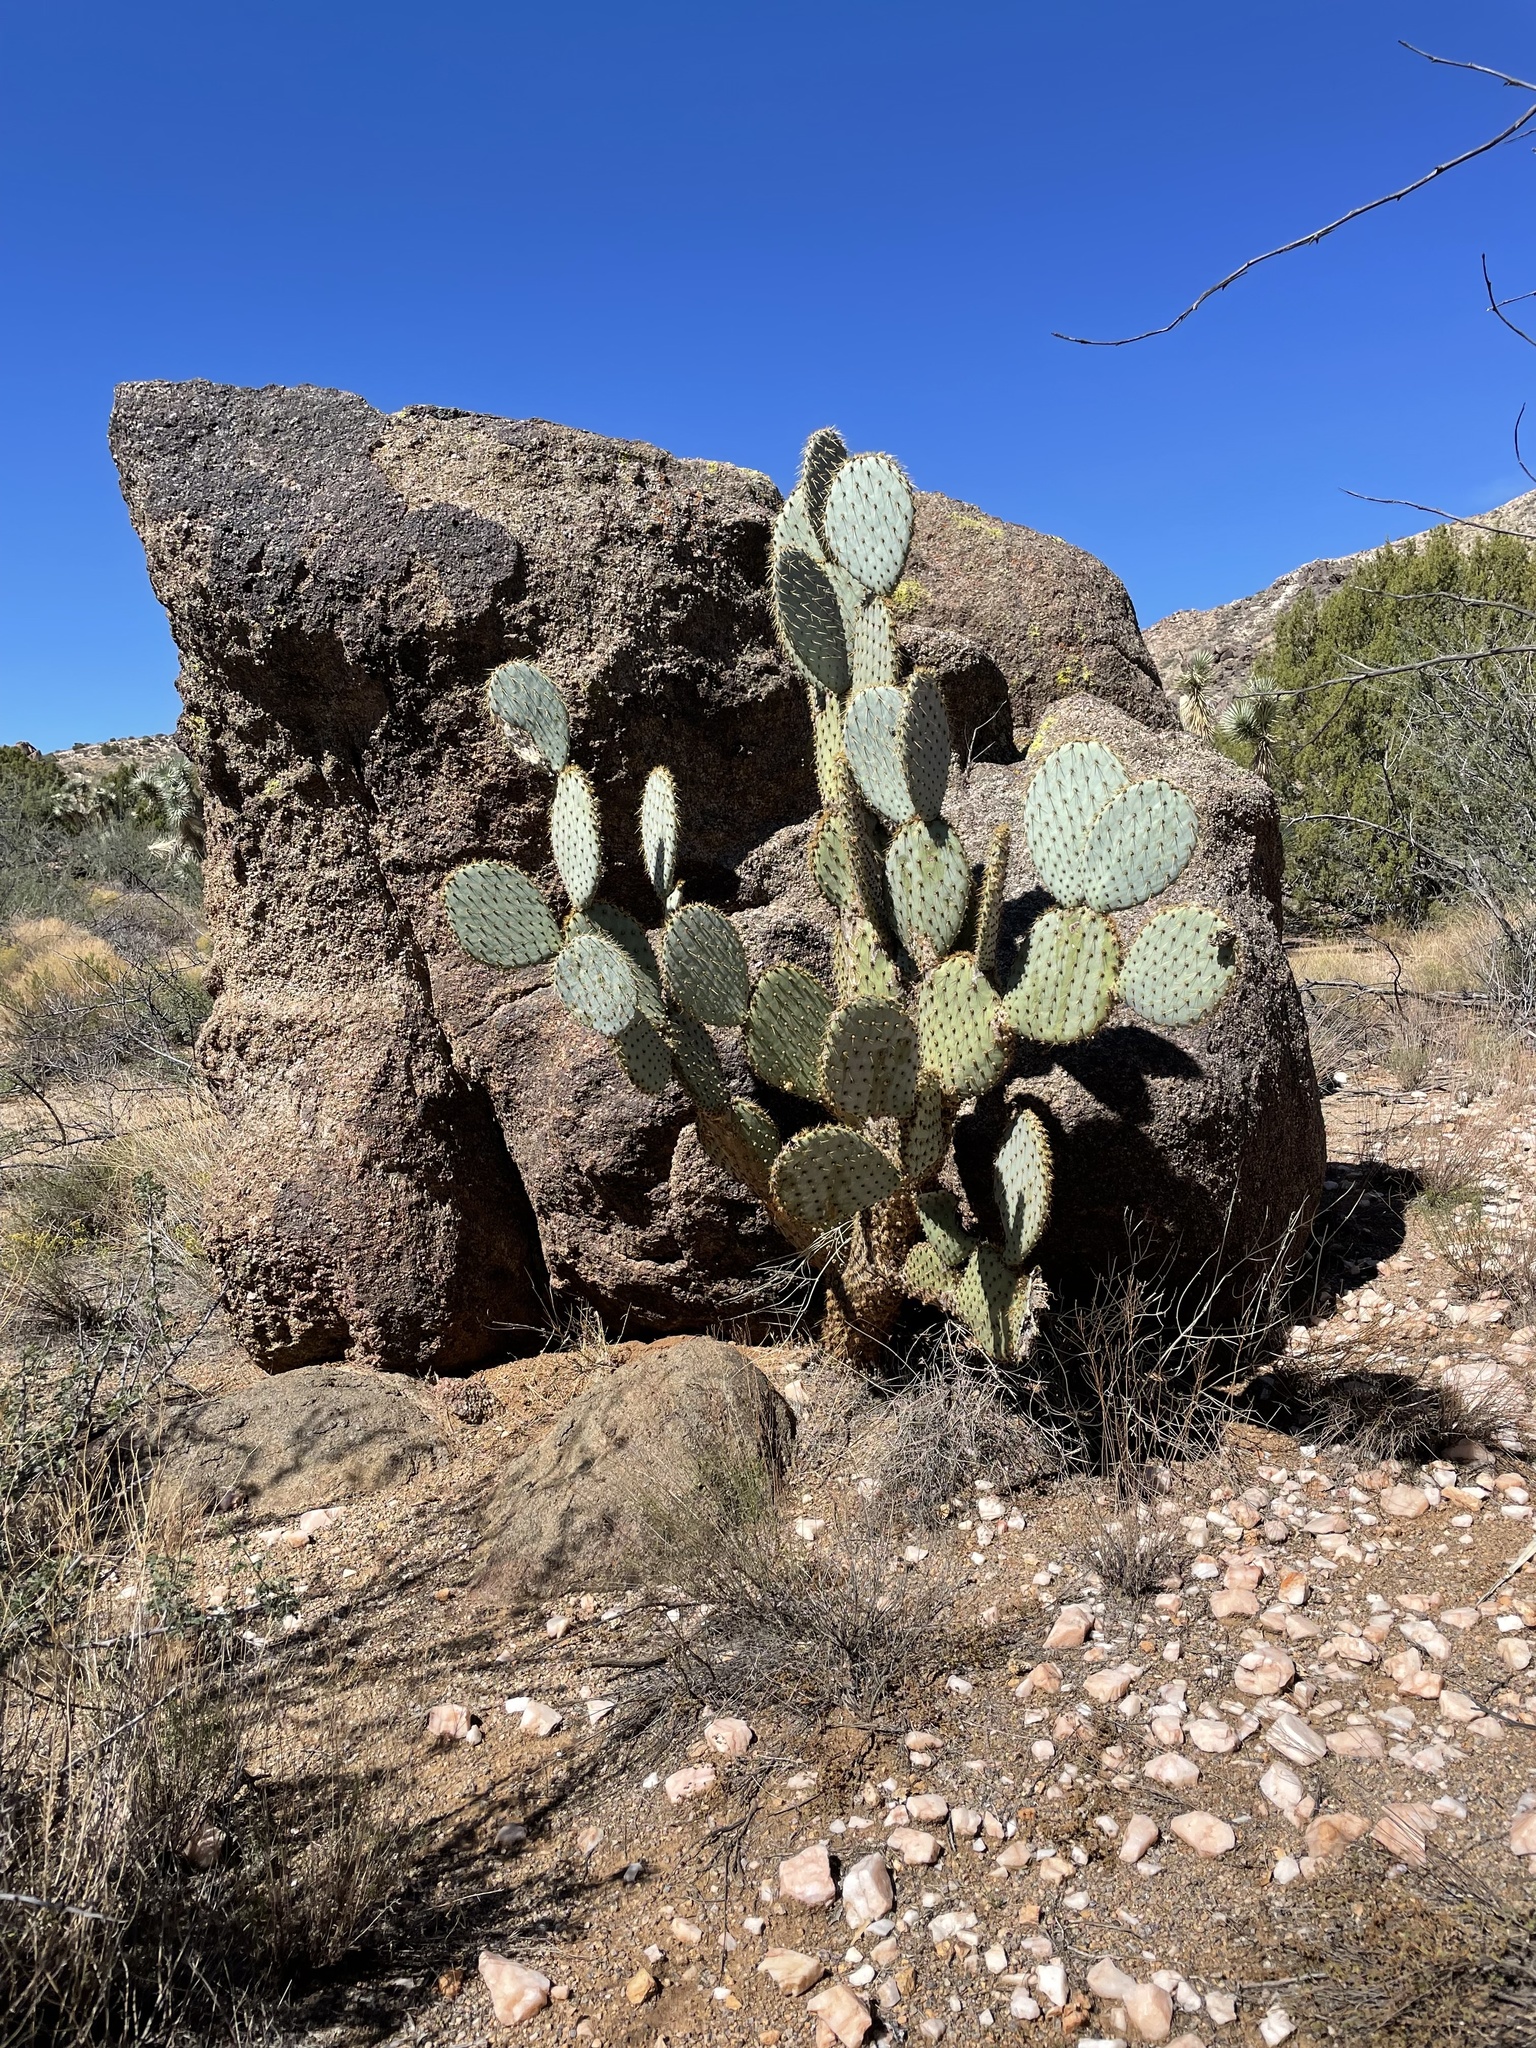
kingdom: Plantae
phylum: Tracheophyta
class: Magnoliopsida
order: Caryophyllales
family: Cactaceae
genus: Opuntia
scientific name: Opuntia chlorotica
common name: Dollar-joint prickly-pear
